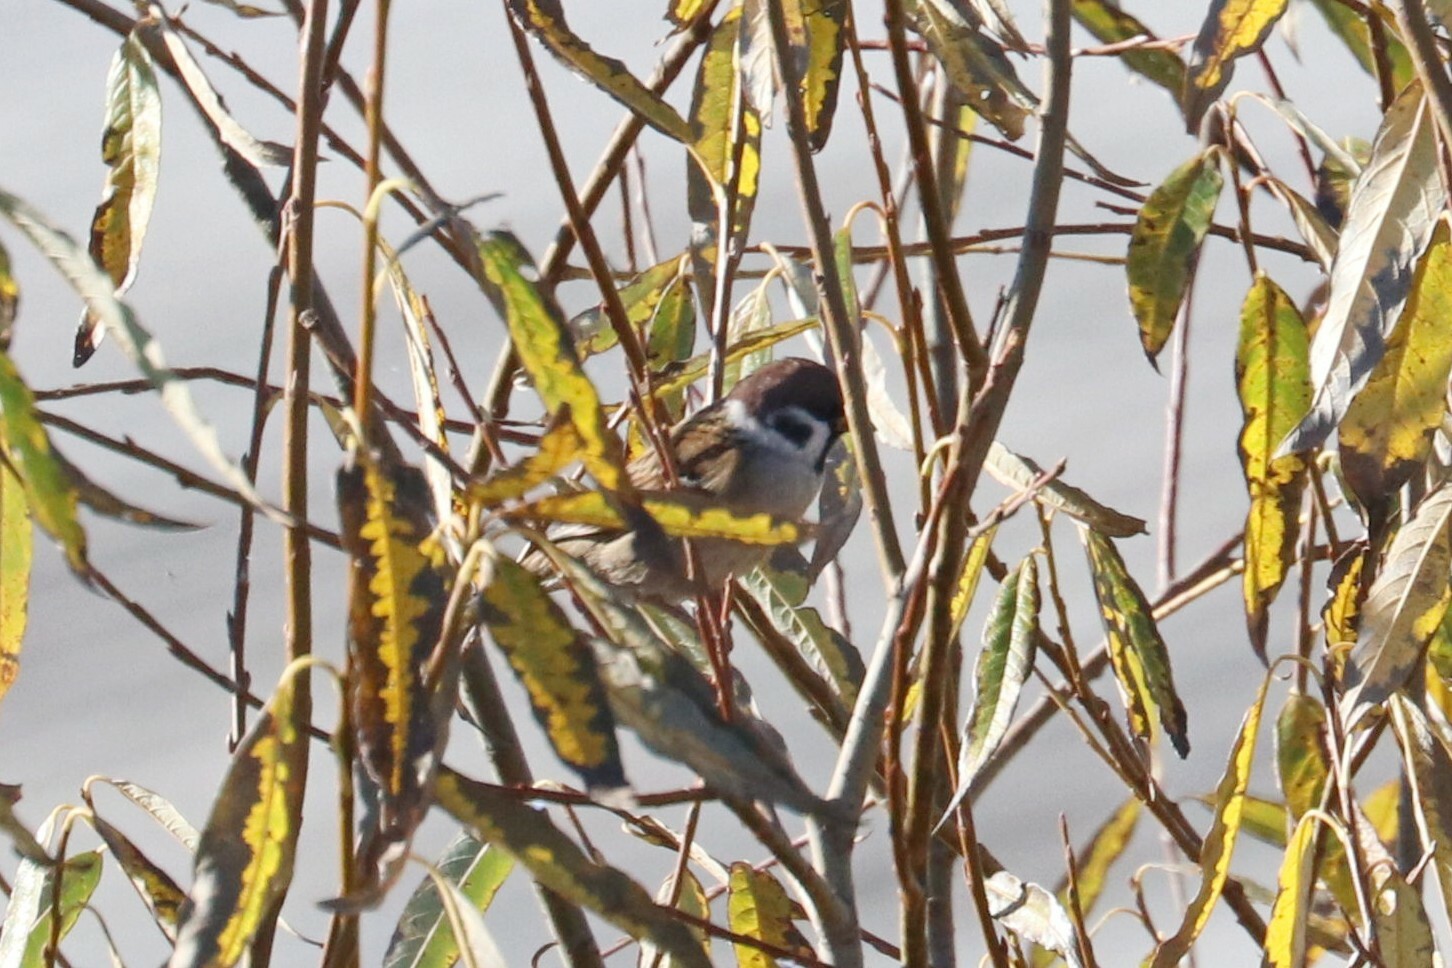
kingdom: Animalia
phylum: Chordata
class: Aves
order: Passeriformes
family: Passeridae
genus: Passer
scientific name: Passer montanus
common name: Eurasian tree sparrow
